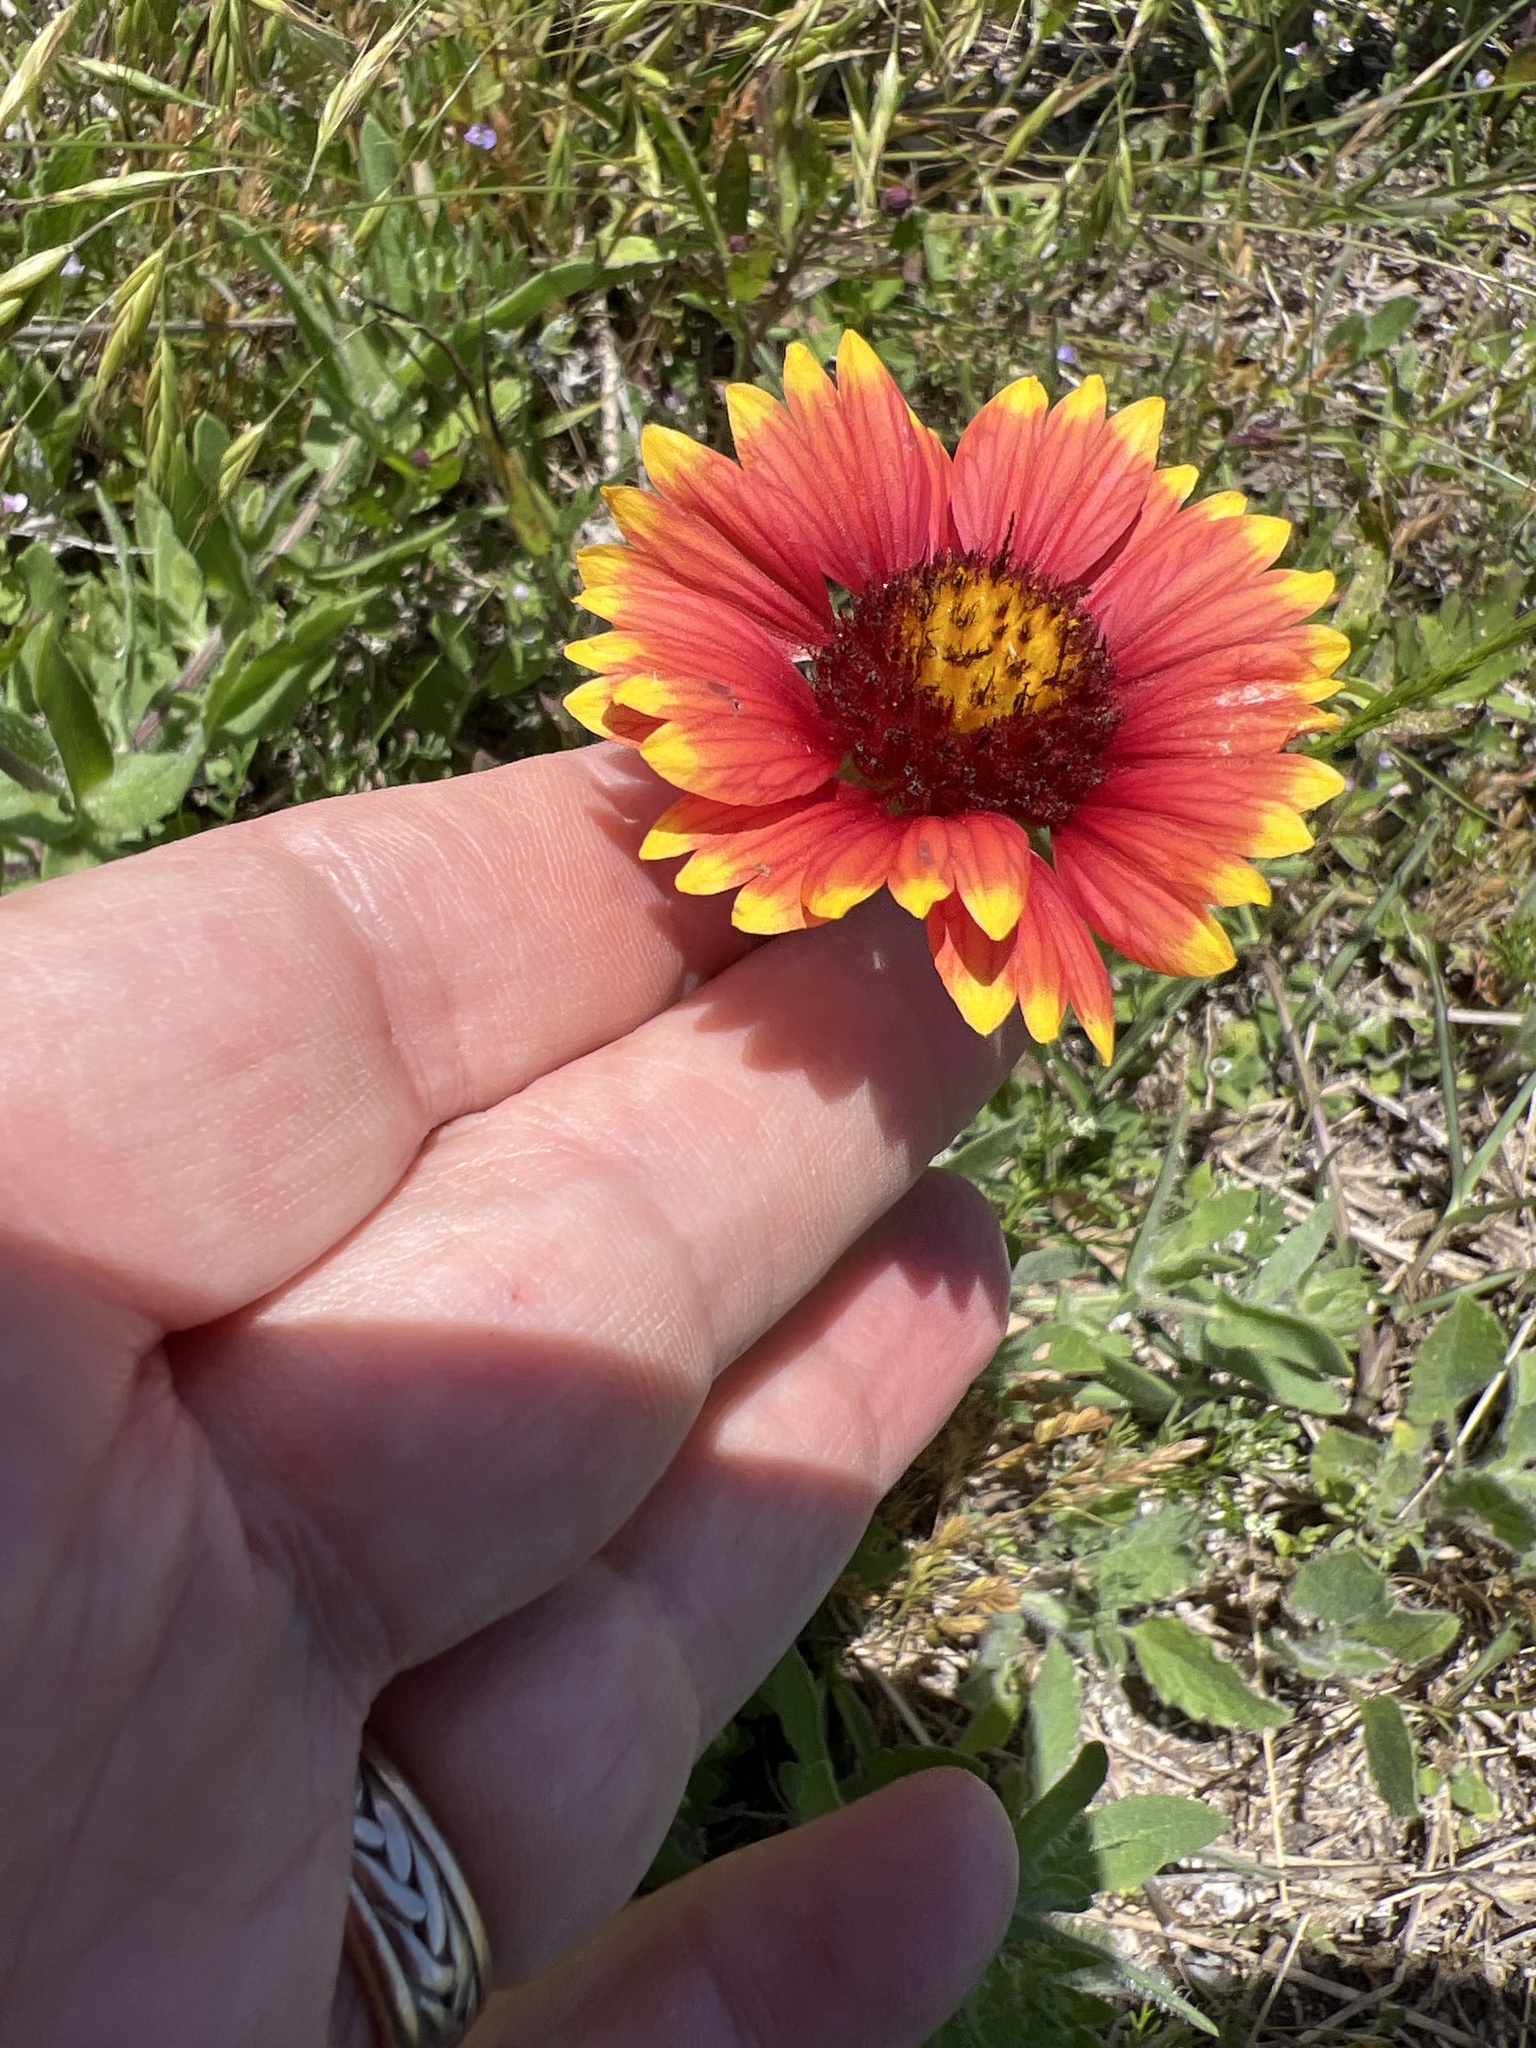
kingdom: Plantae
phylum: Tracheophyta
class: Magnoliopsida
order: Asterales
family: Asteraceae
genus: Gaillardia
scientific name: Gaillardia pulchella
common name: Firewheel
